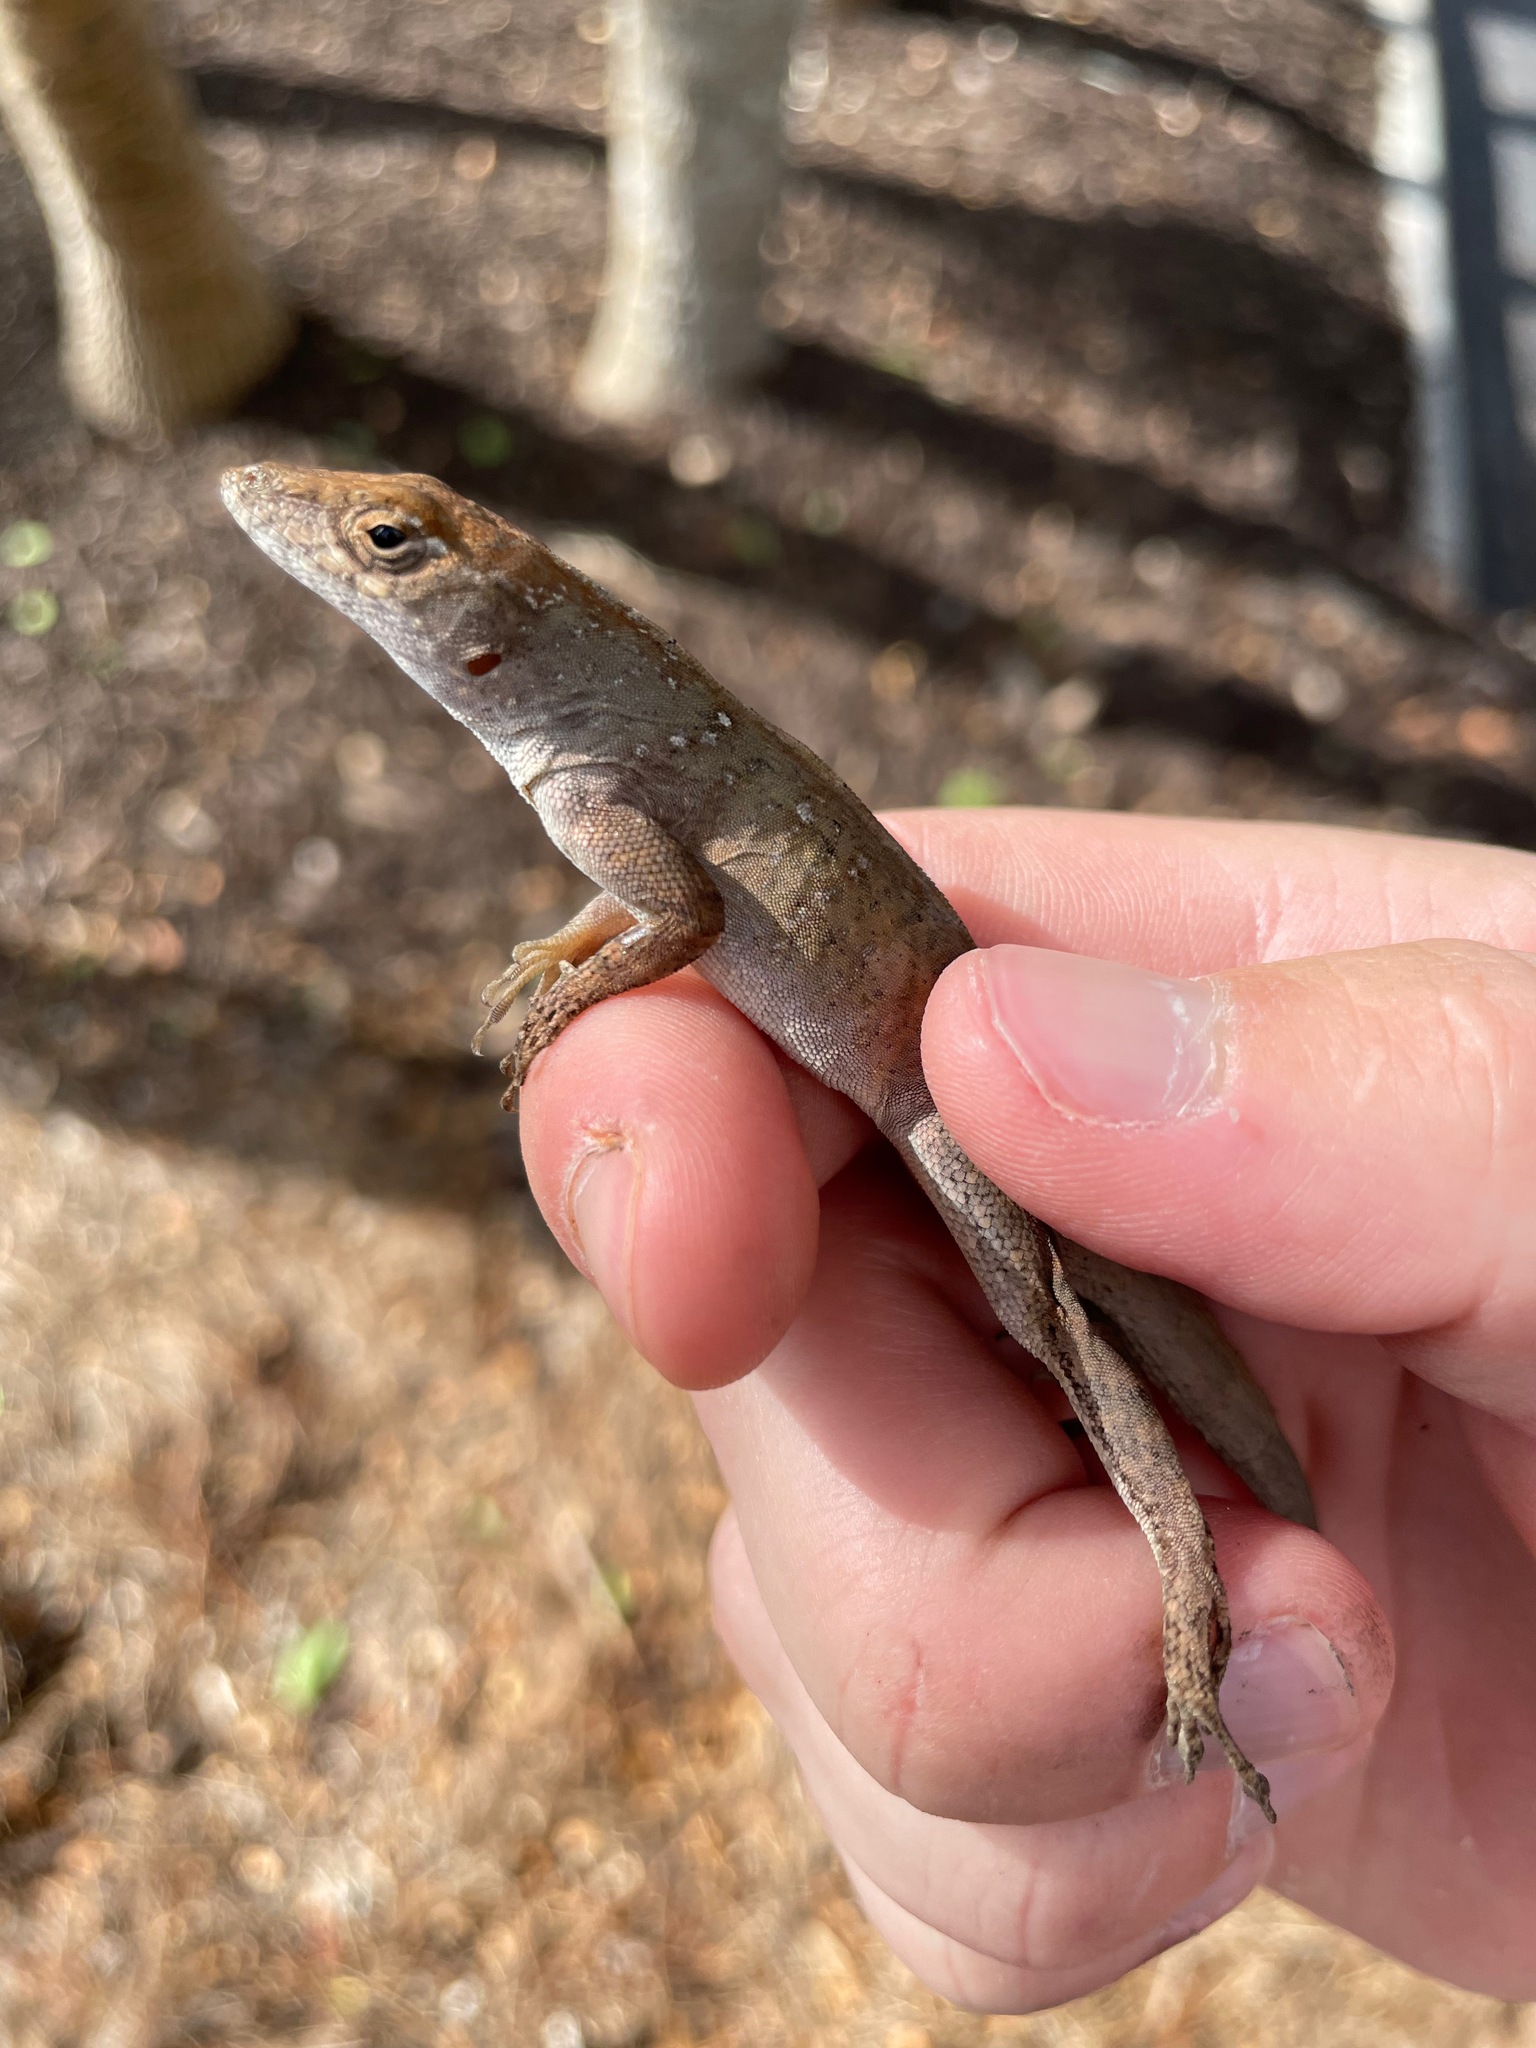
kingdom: Animalia
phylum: Chordata
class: Squamata
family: Dactyloidae
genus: Anolis
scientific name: Anolis sagrei
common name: Brown anole
